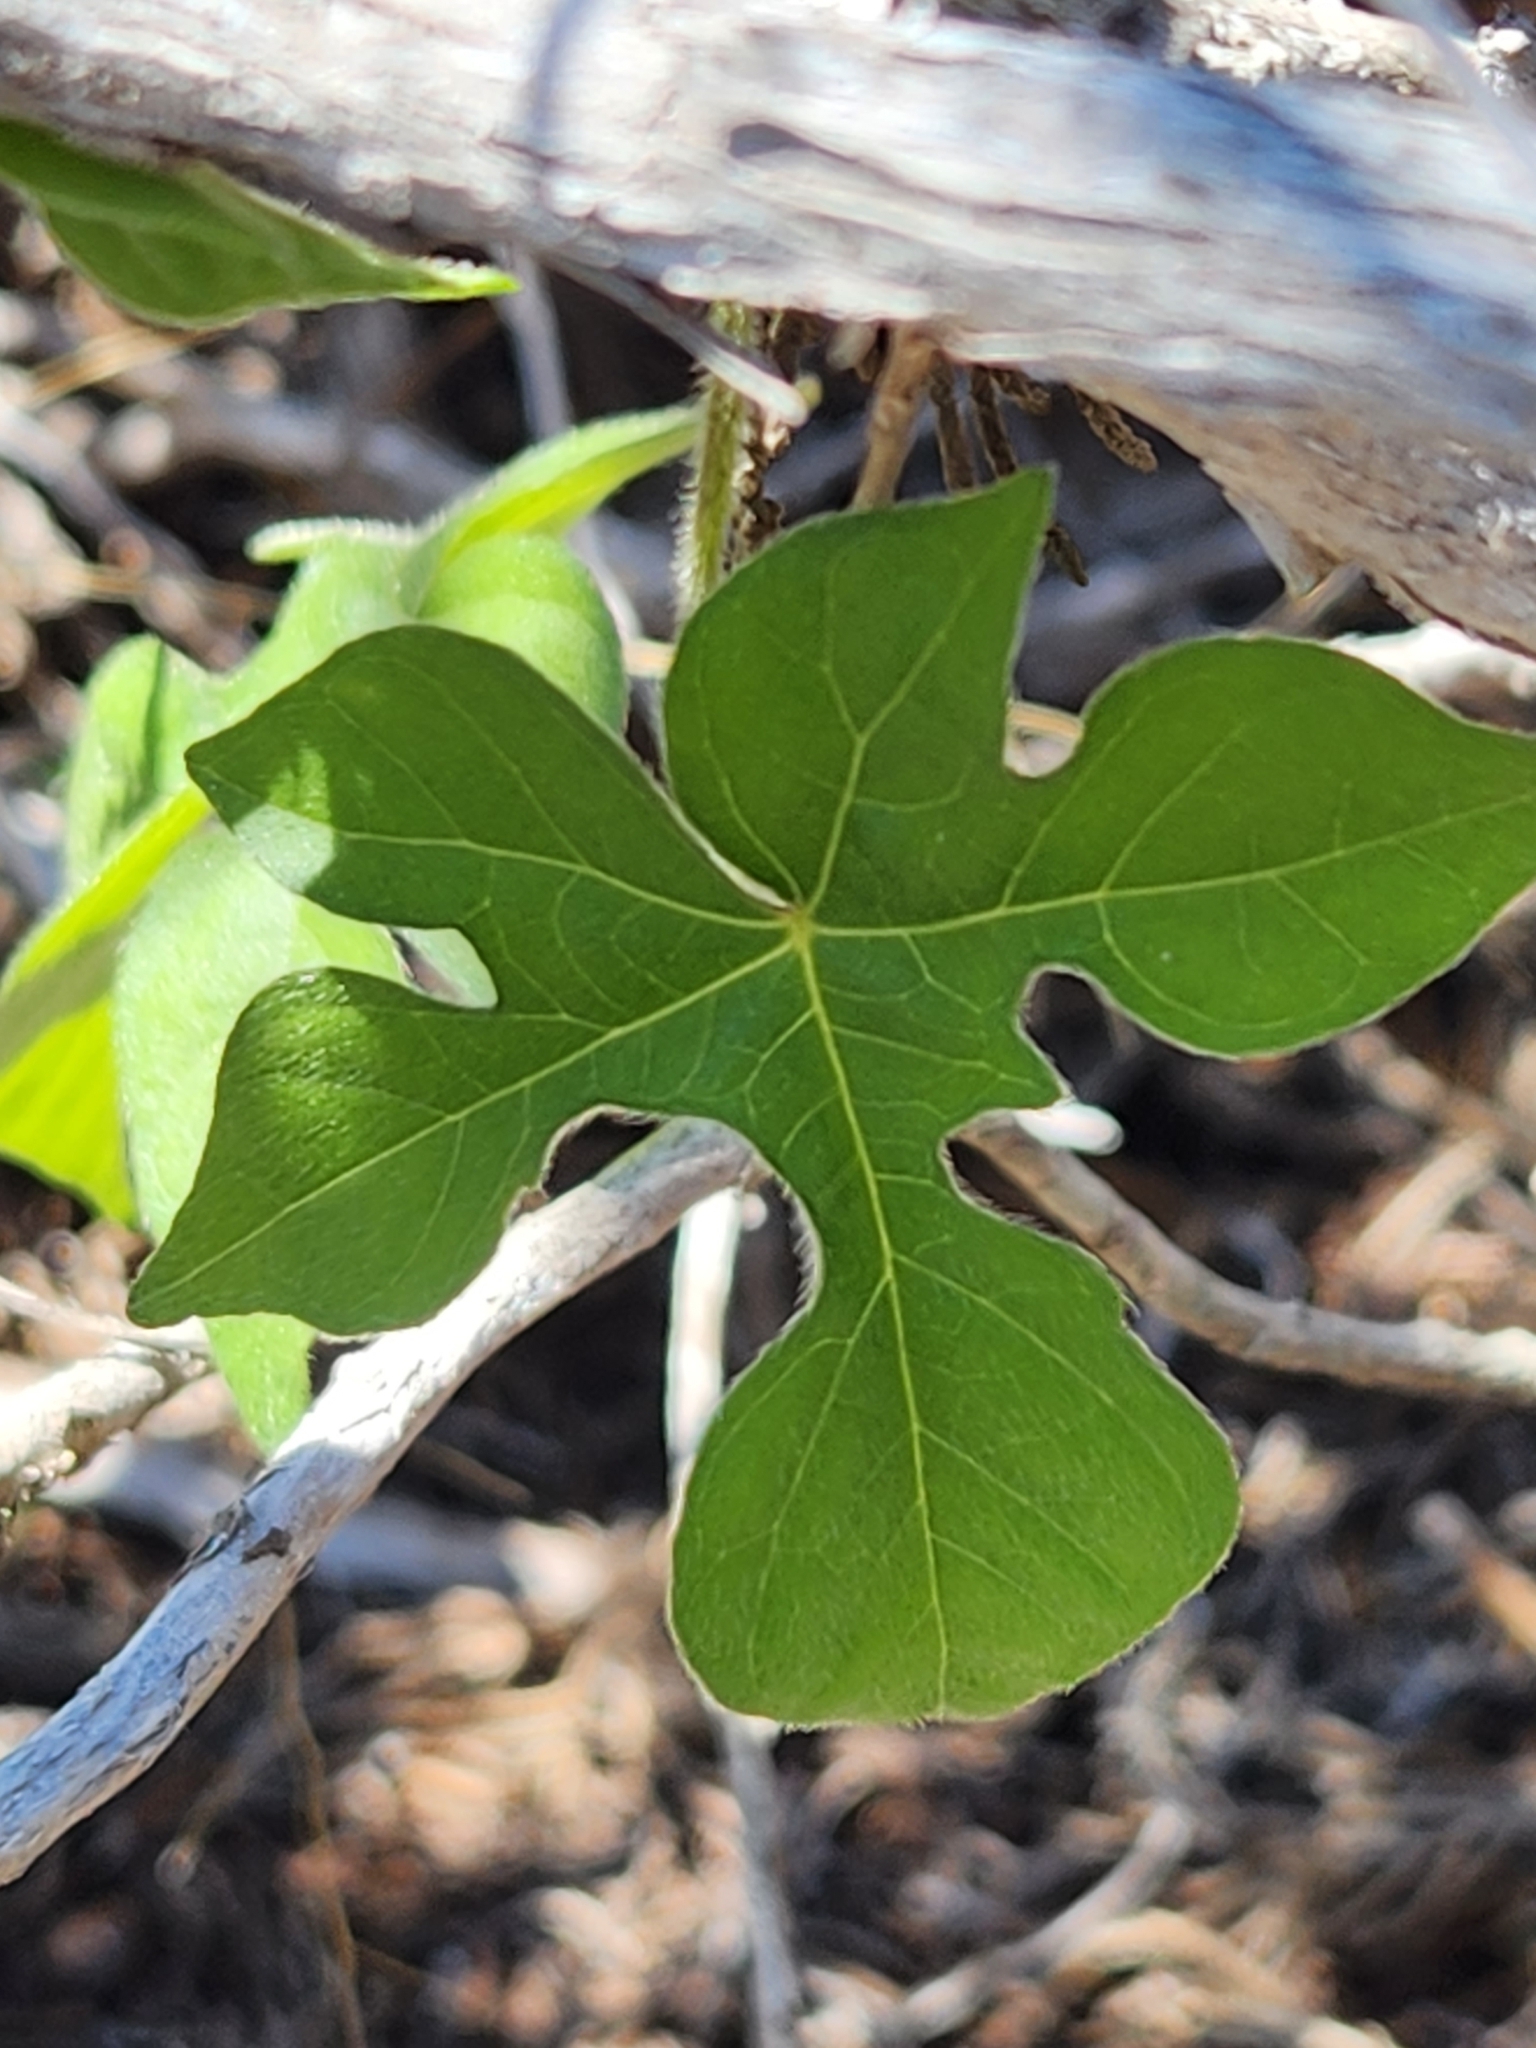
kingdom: Plantae
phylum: Tracheophyta
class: Magnoliopsida
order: Solanales
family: Convolvulaceae
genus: Ipomoea
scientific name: Ipomoea lindheimeri
